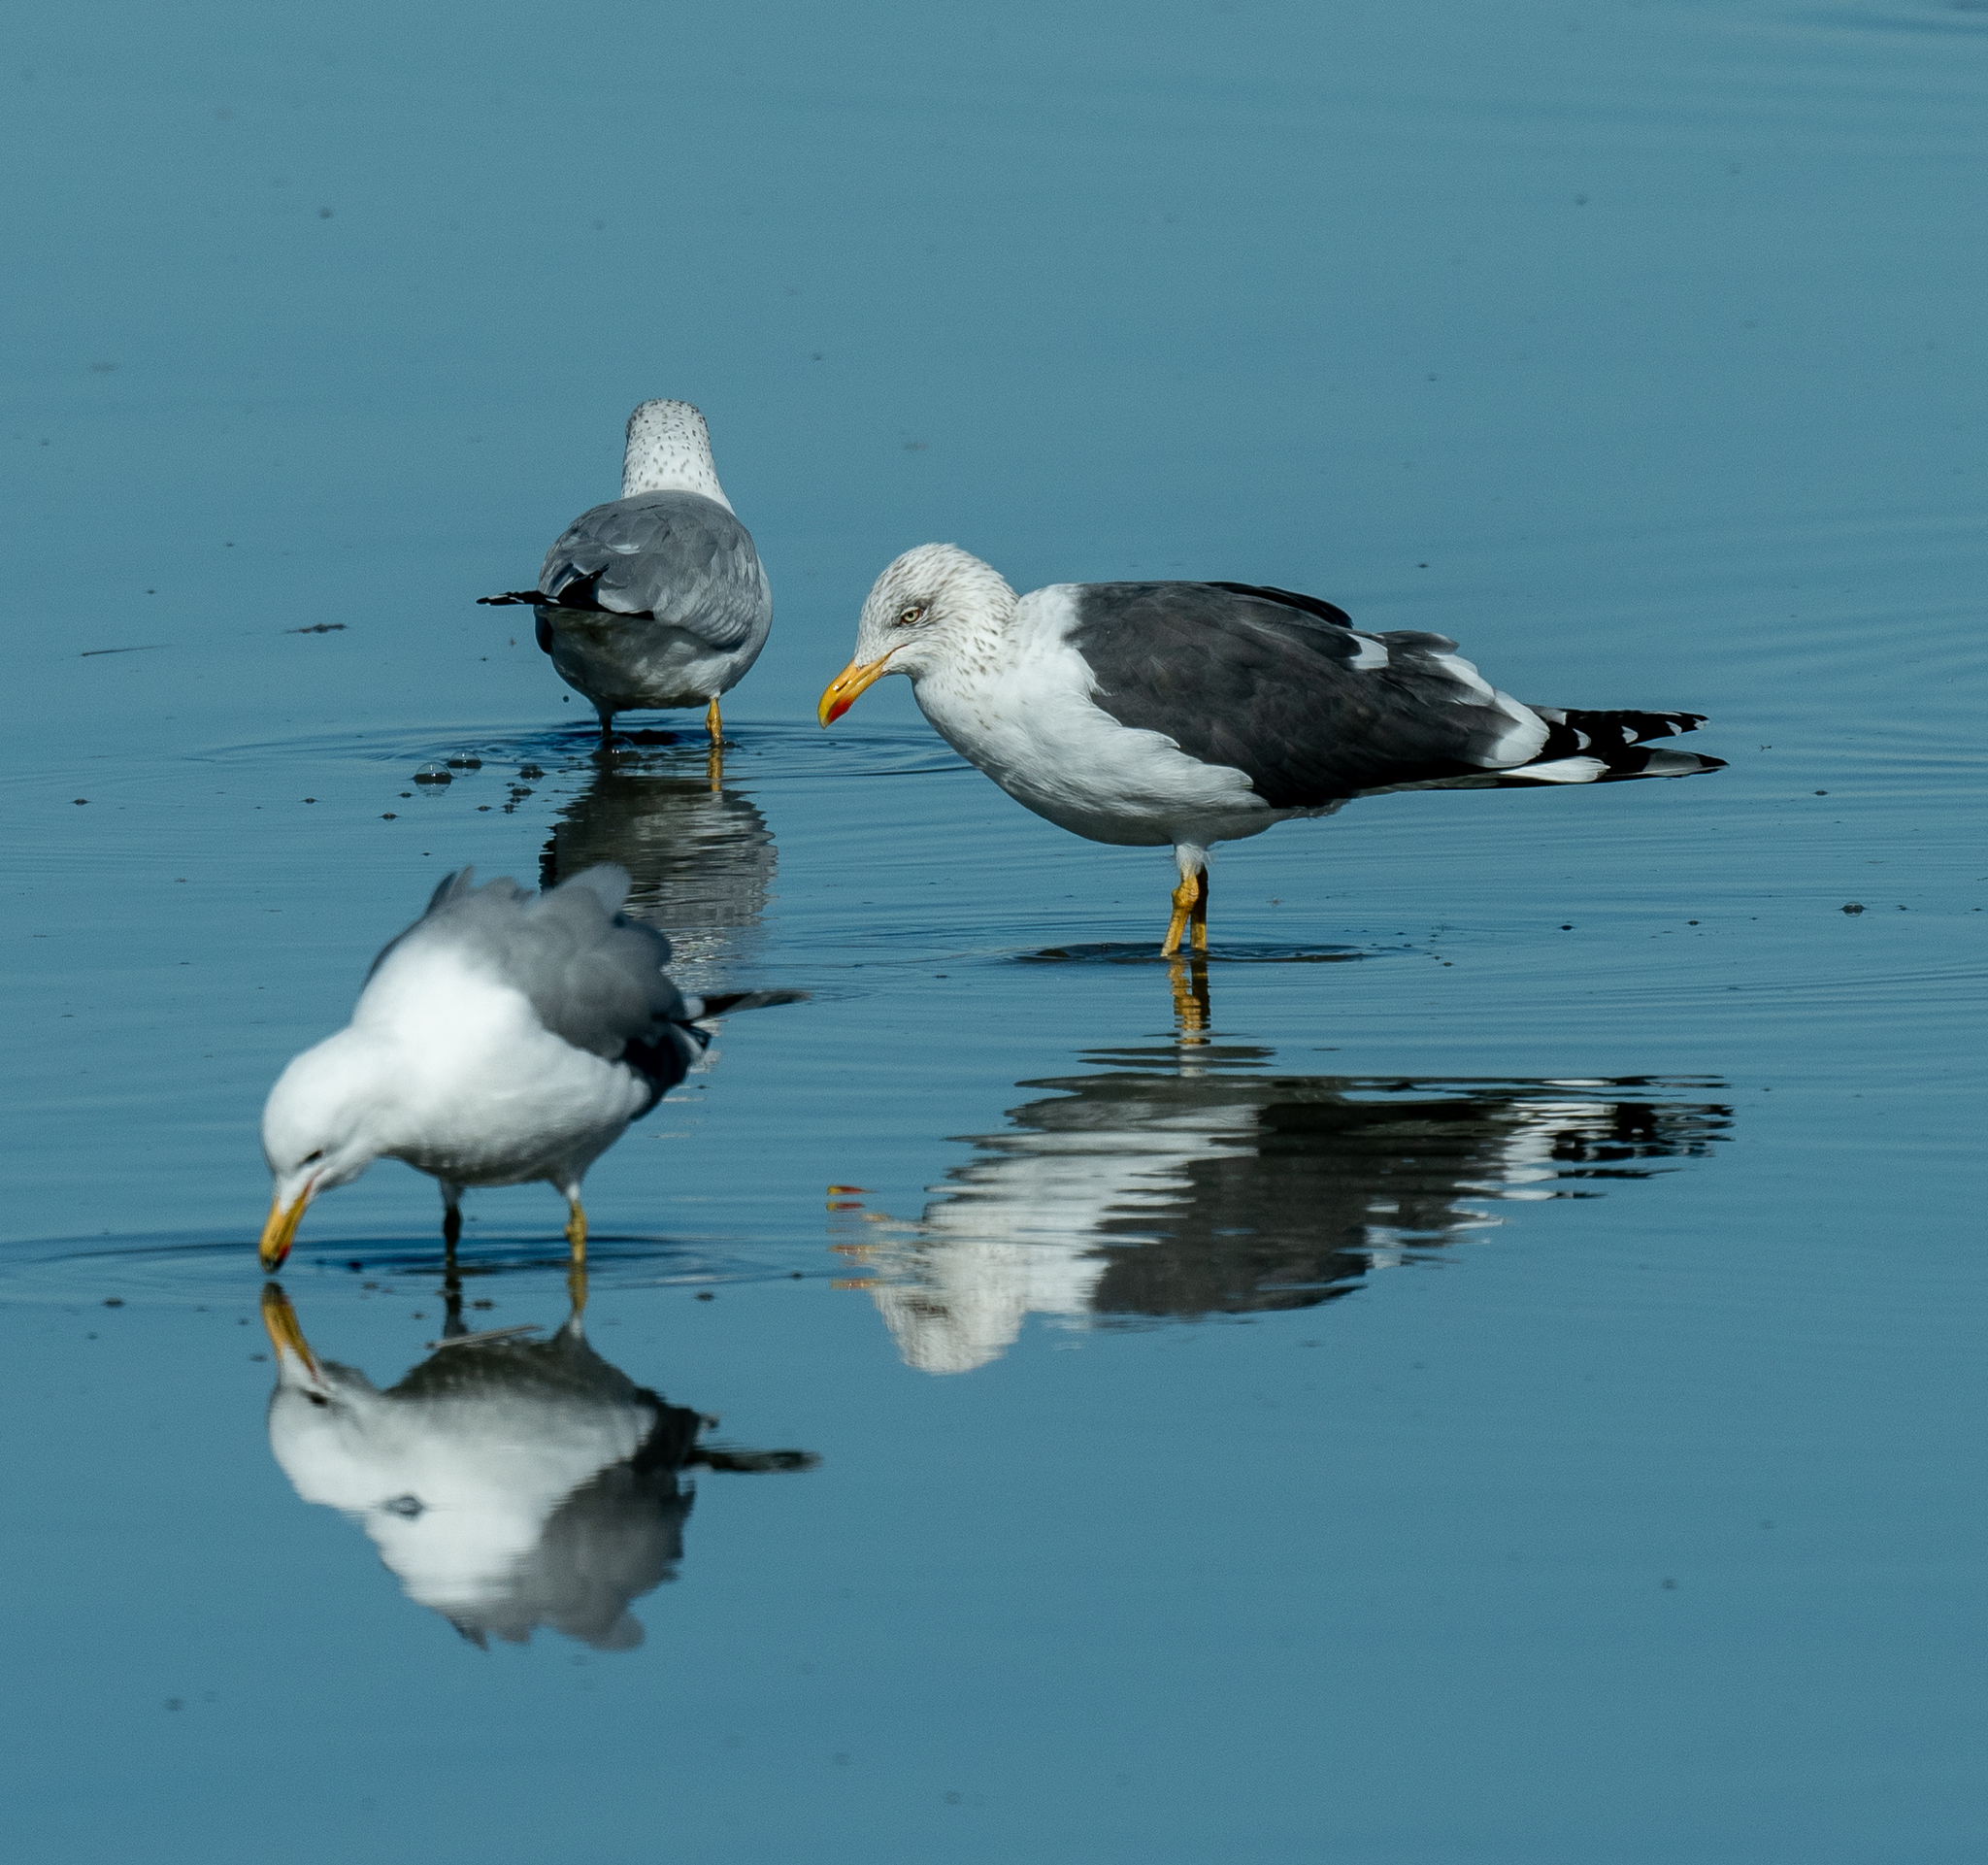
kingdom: Animalia
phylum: Chordata
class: Aves
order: Charadriiformes
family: Laridae
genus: Larus
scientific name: Larus fuscus
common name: Lesser black-backed gull
